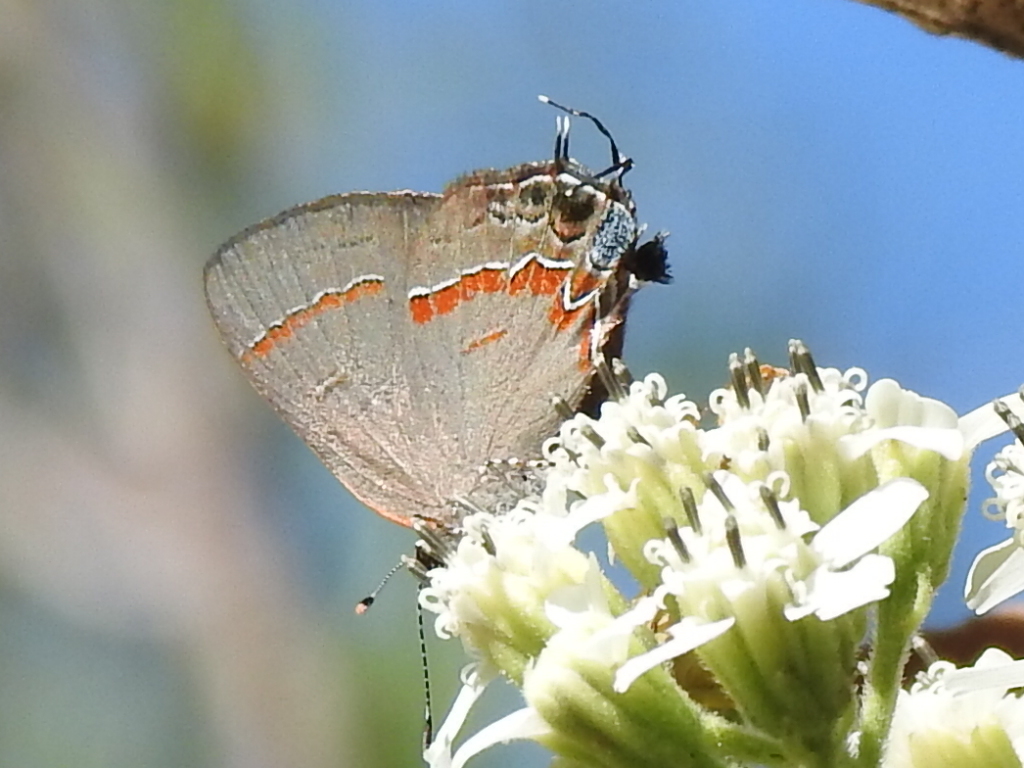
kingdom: Animalia
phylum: Arthropoda
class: Insecta
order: Lepidoptera
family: Lycaenidae
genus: Calycopis
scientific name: Calycopis cecrops
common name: Red-banded hairstreak
